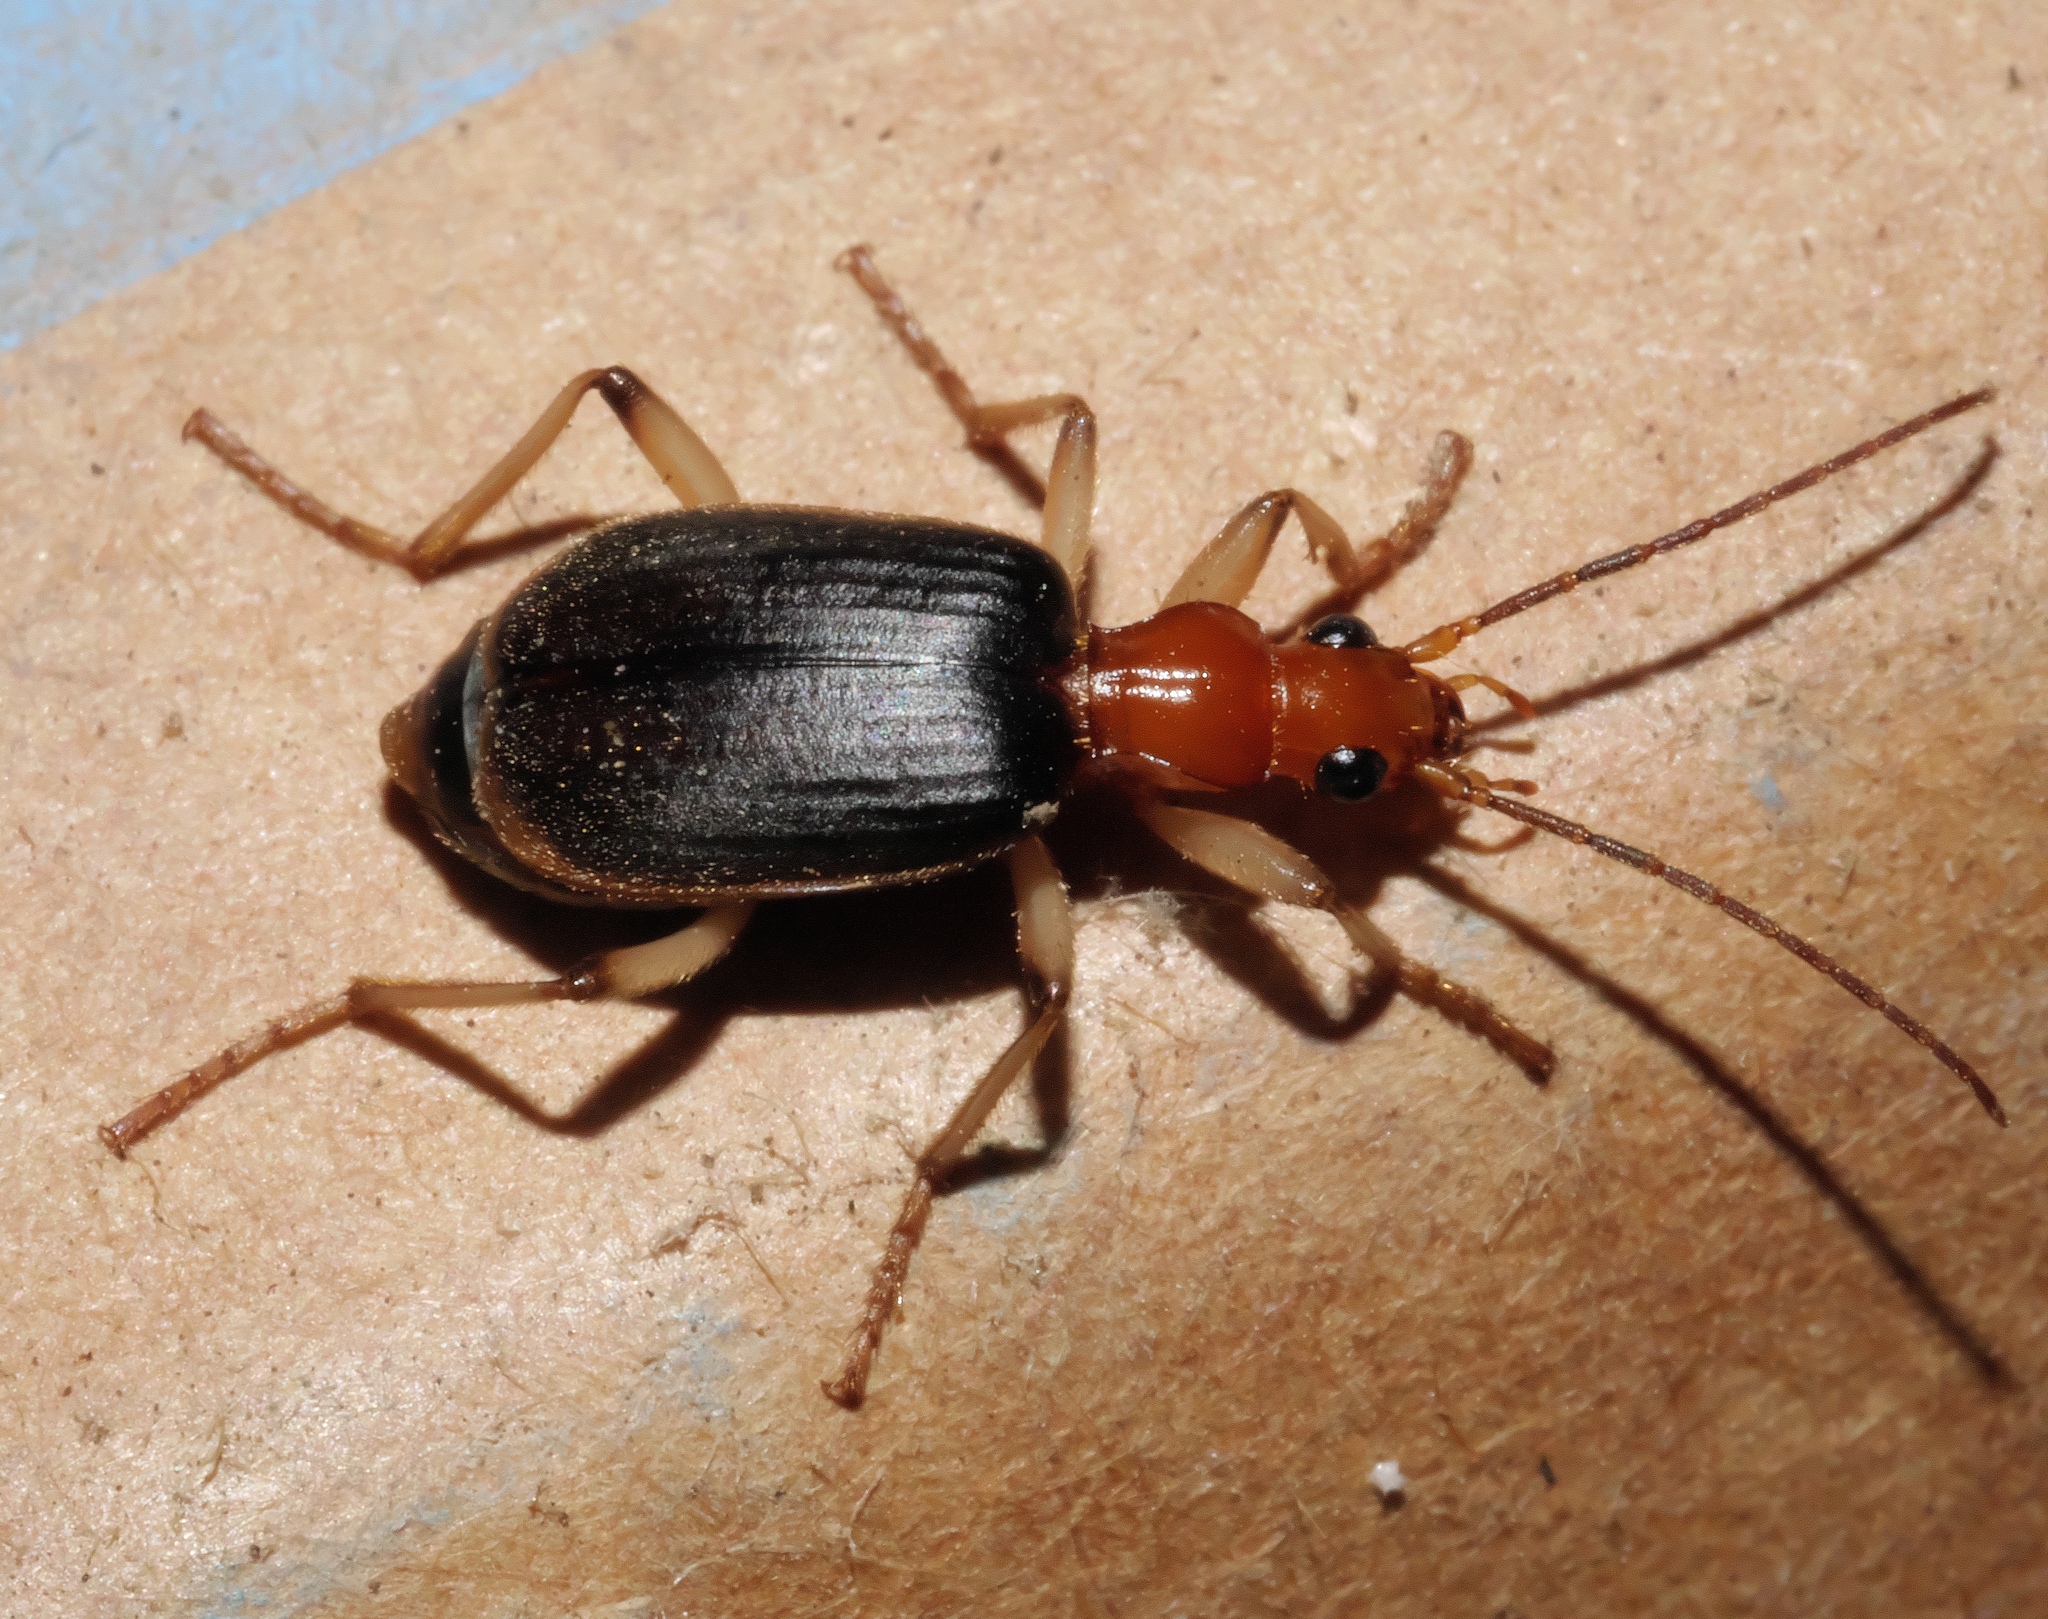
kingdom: Animalia
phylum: Arthropoda
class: Insecta
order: Coleoptera
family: Carabidae
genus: Brachinus
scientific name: Brachinus adustipennis
